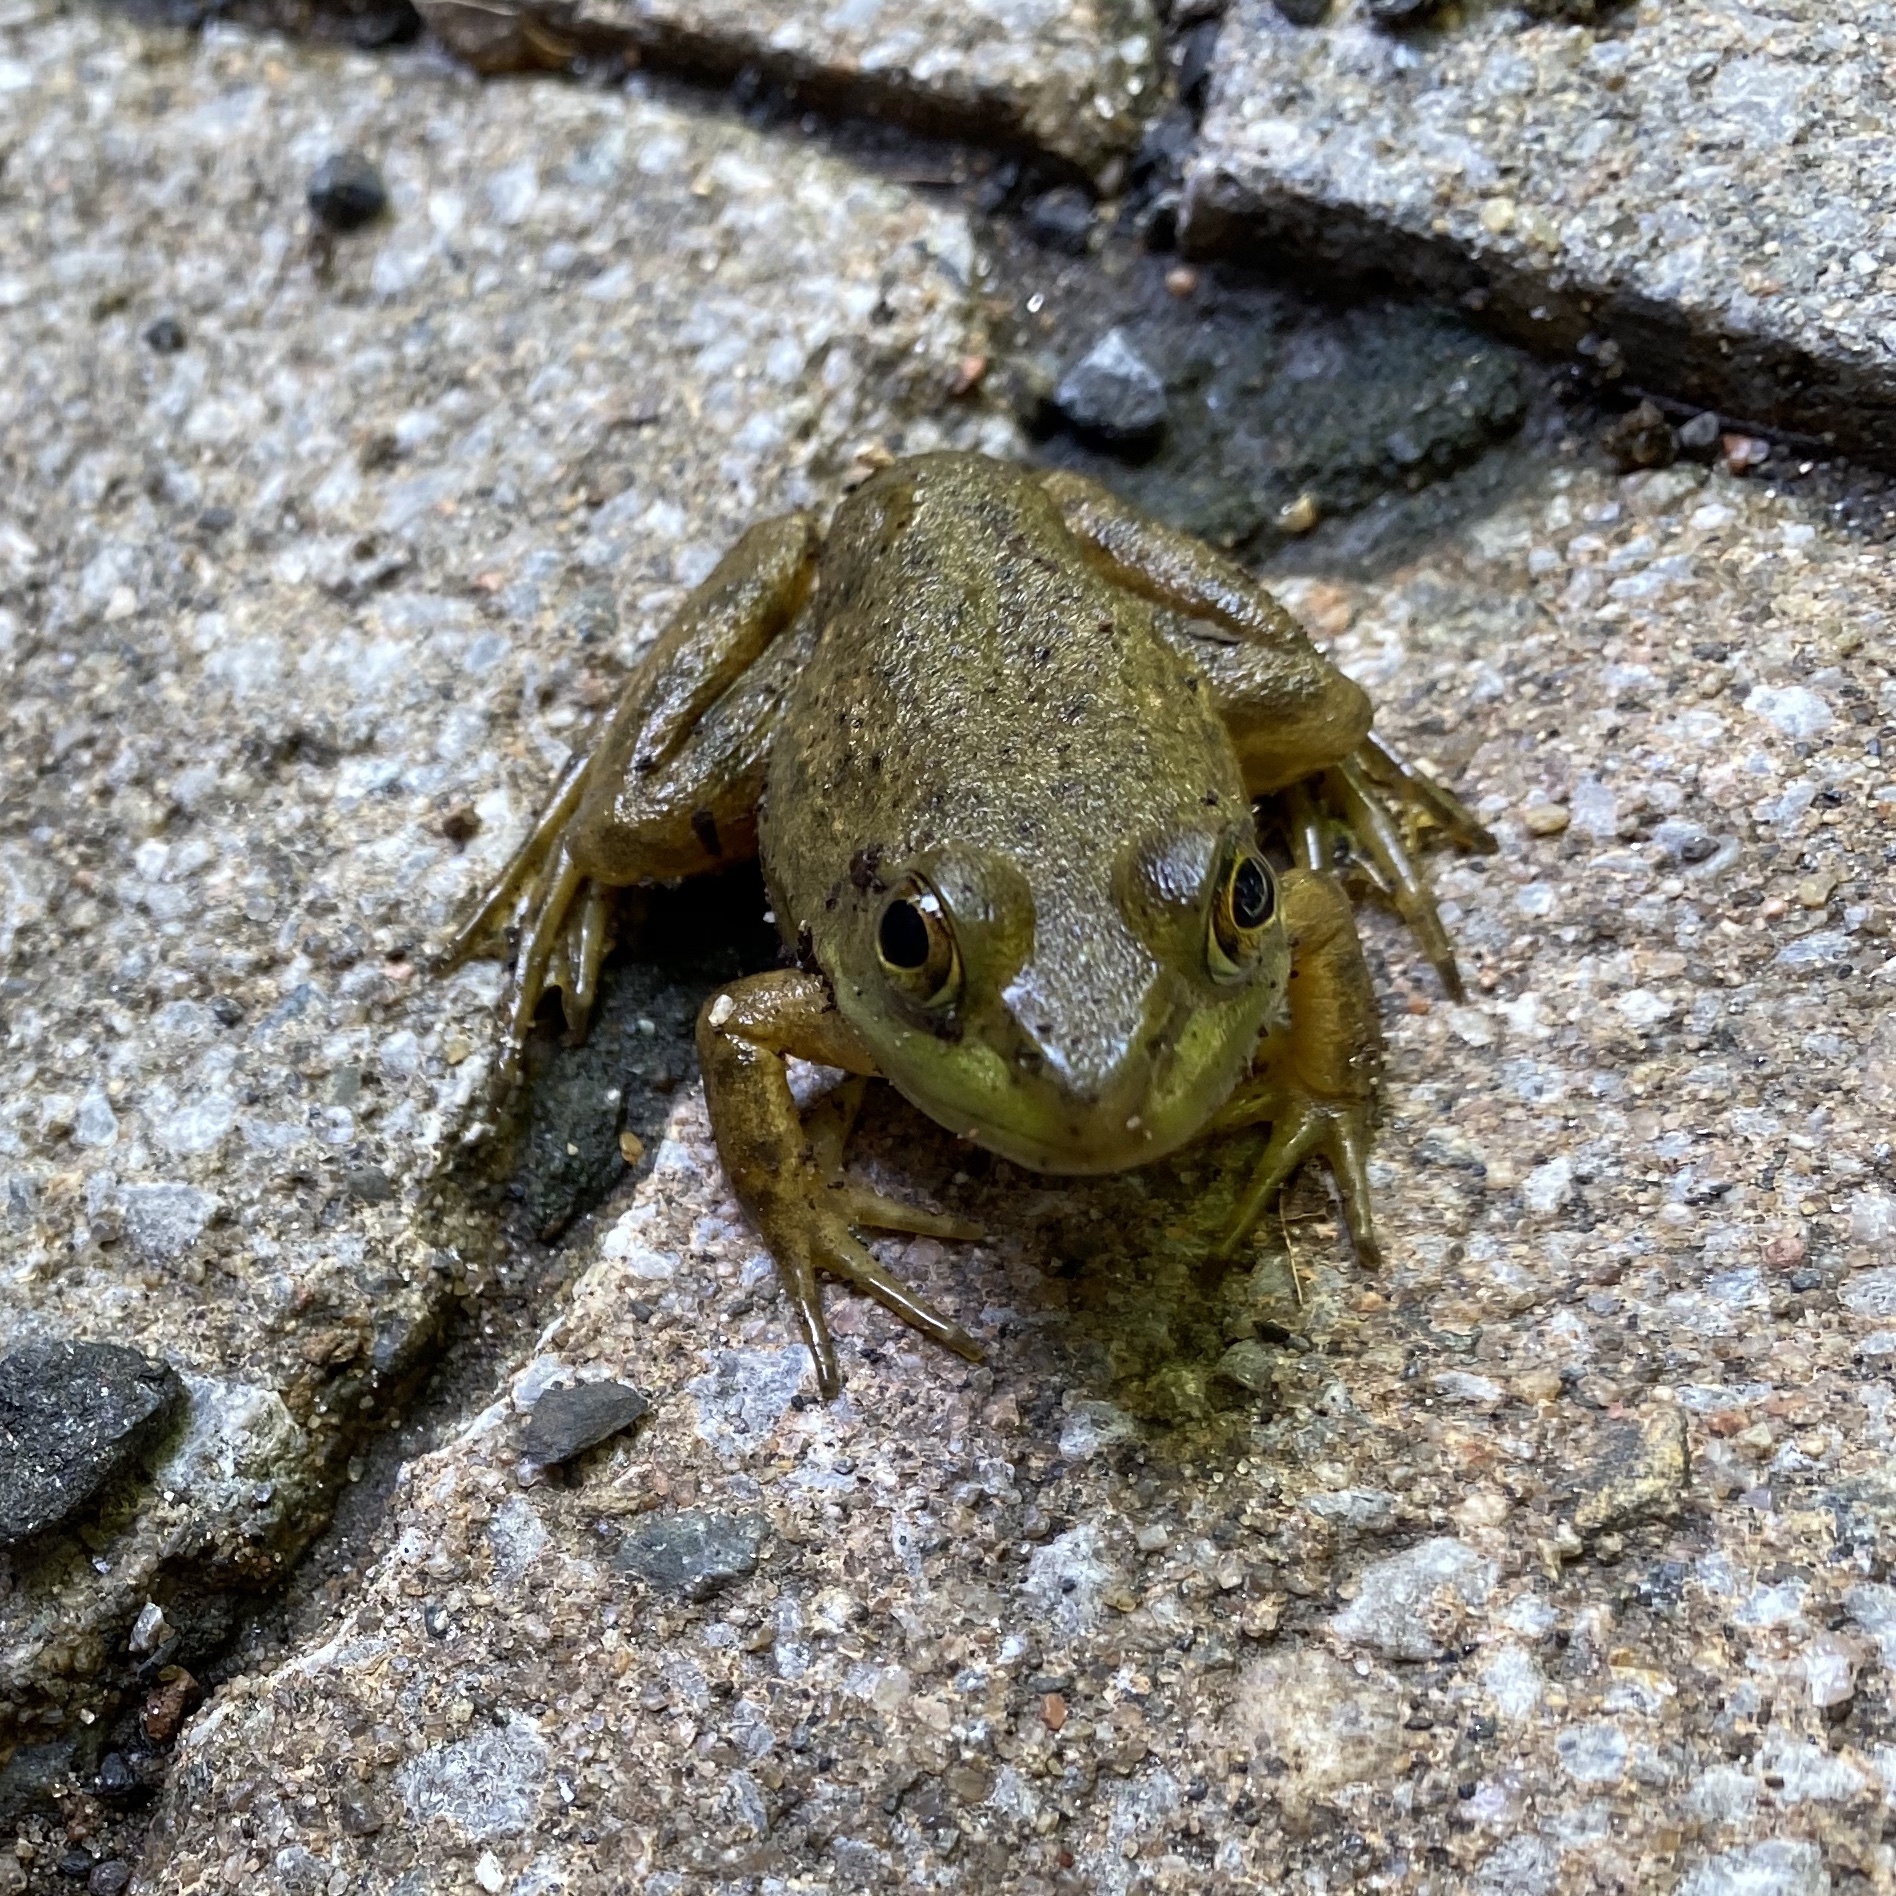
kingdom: Animalia
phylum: Chordata
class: Amphibia
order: Anura
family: Ranidae
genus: Lithobates
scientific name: Lithobates catesbeianus
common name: American bullfrog
